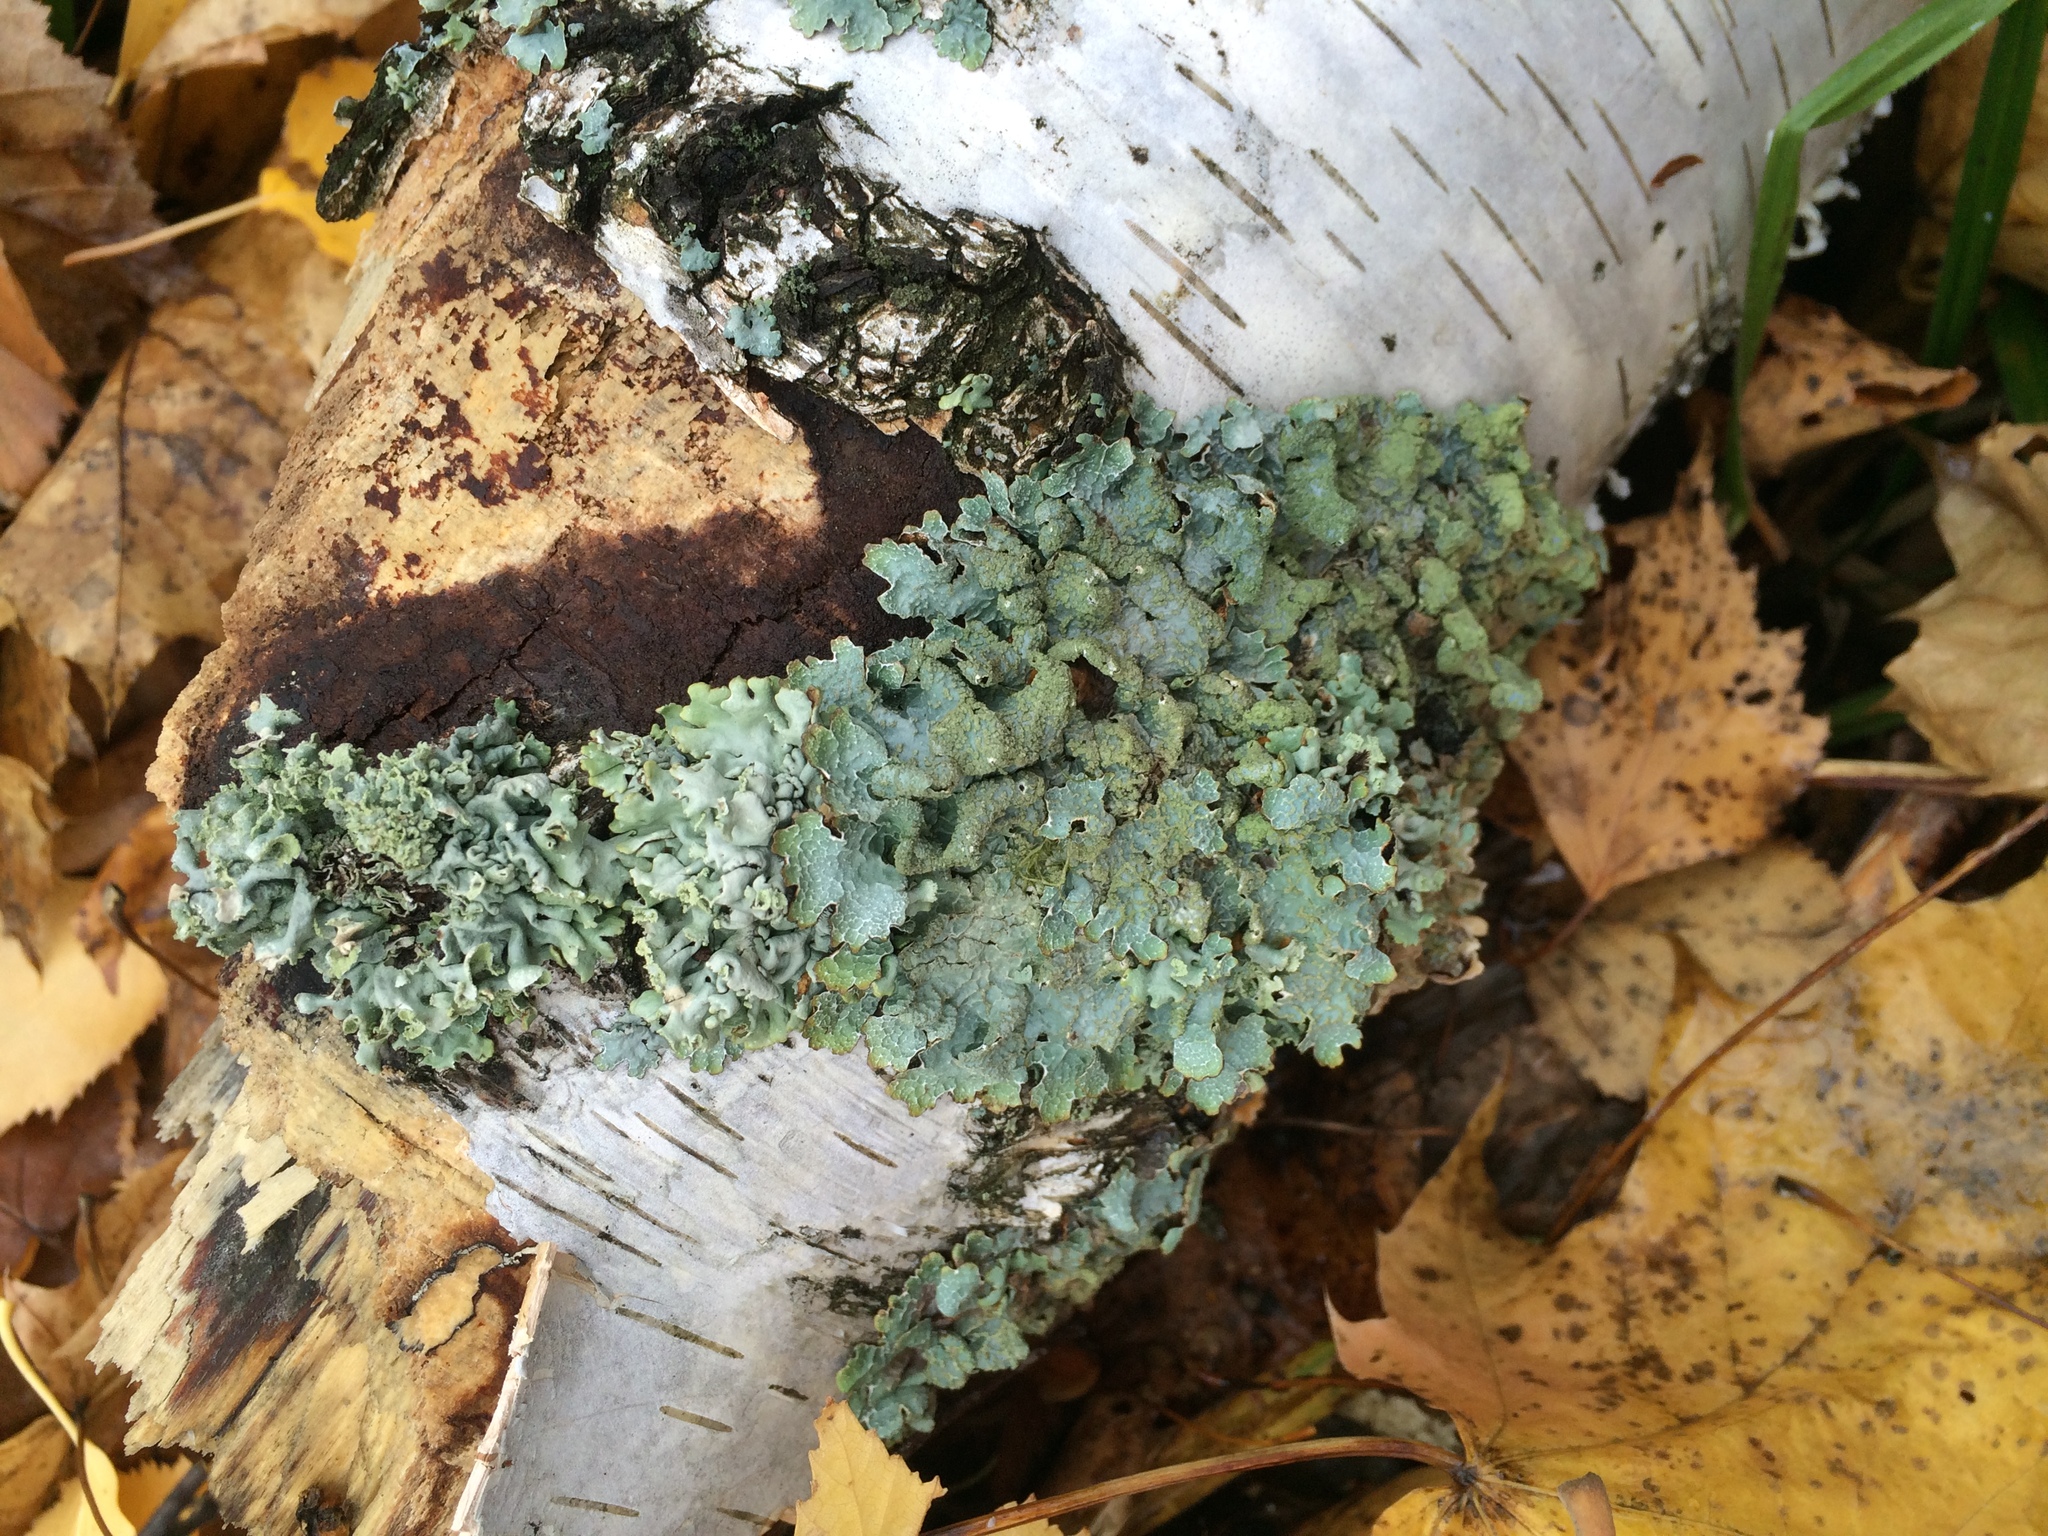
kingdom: Fungi
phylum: Ascomycota
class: Lecanoromycetes
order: Lecanorales
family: Parmeliaceae
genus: Parmelia
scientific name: Parmelia sulcata
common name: Netted shield lichen
